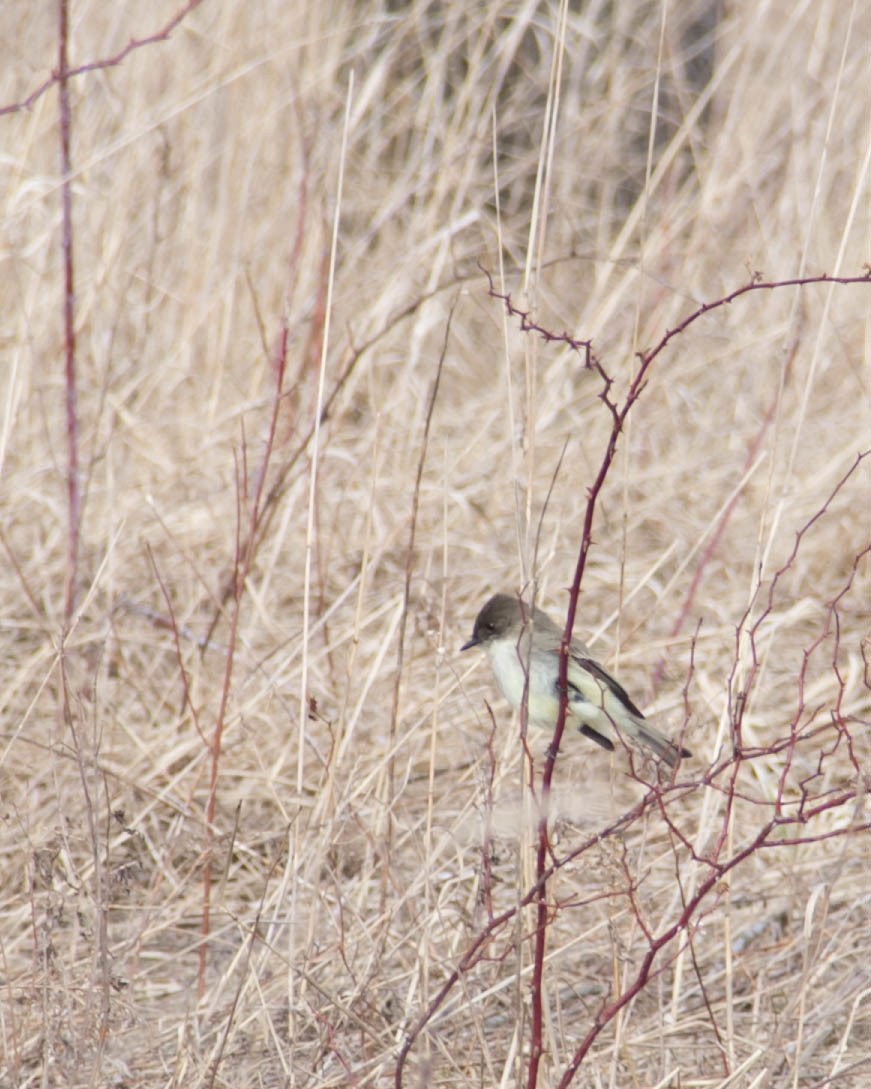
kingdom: Animalia
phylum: Chordata
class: Aves
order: Passeriformes
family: Tyrannidae
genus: Sayornis
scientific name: Sayornis phoebe
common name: Eastern phoebe
